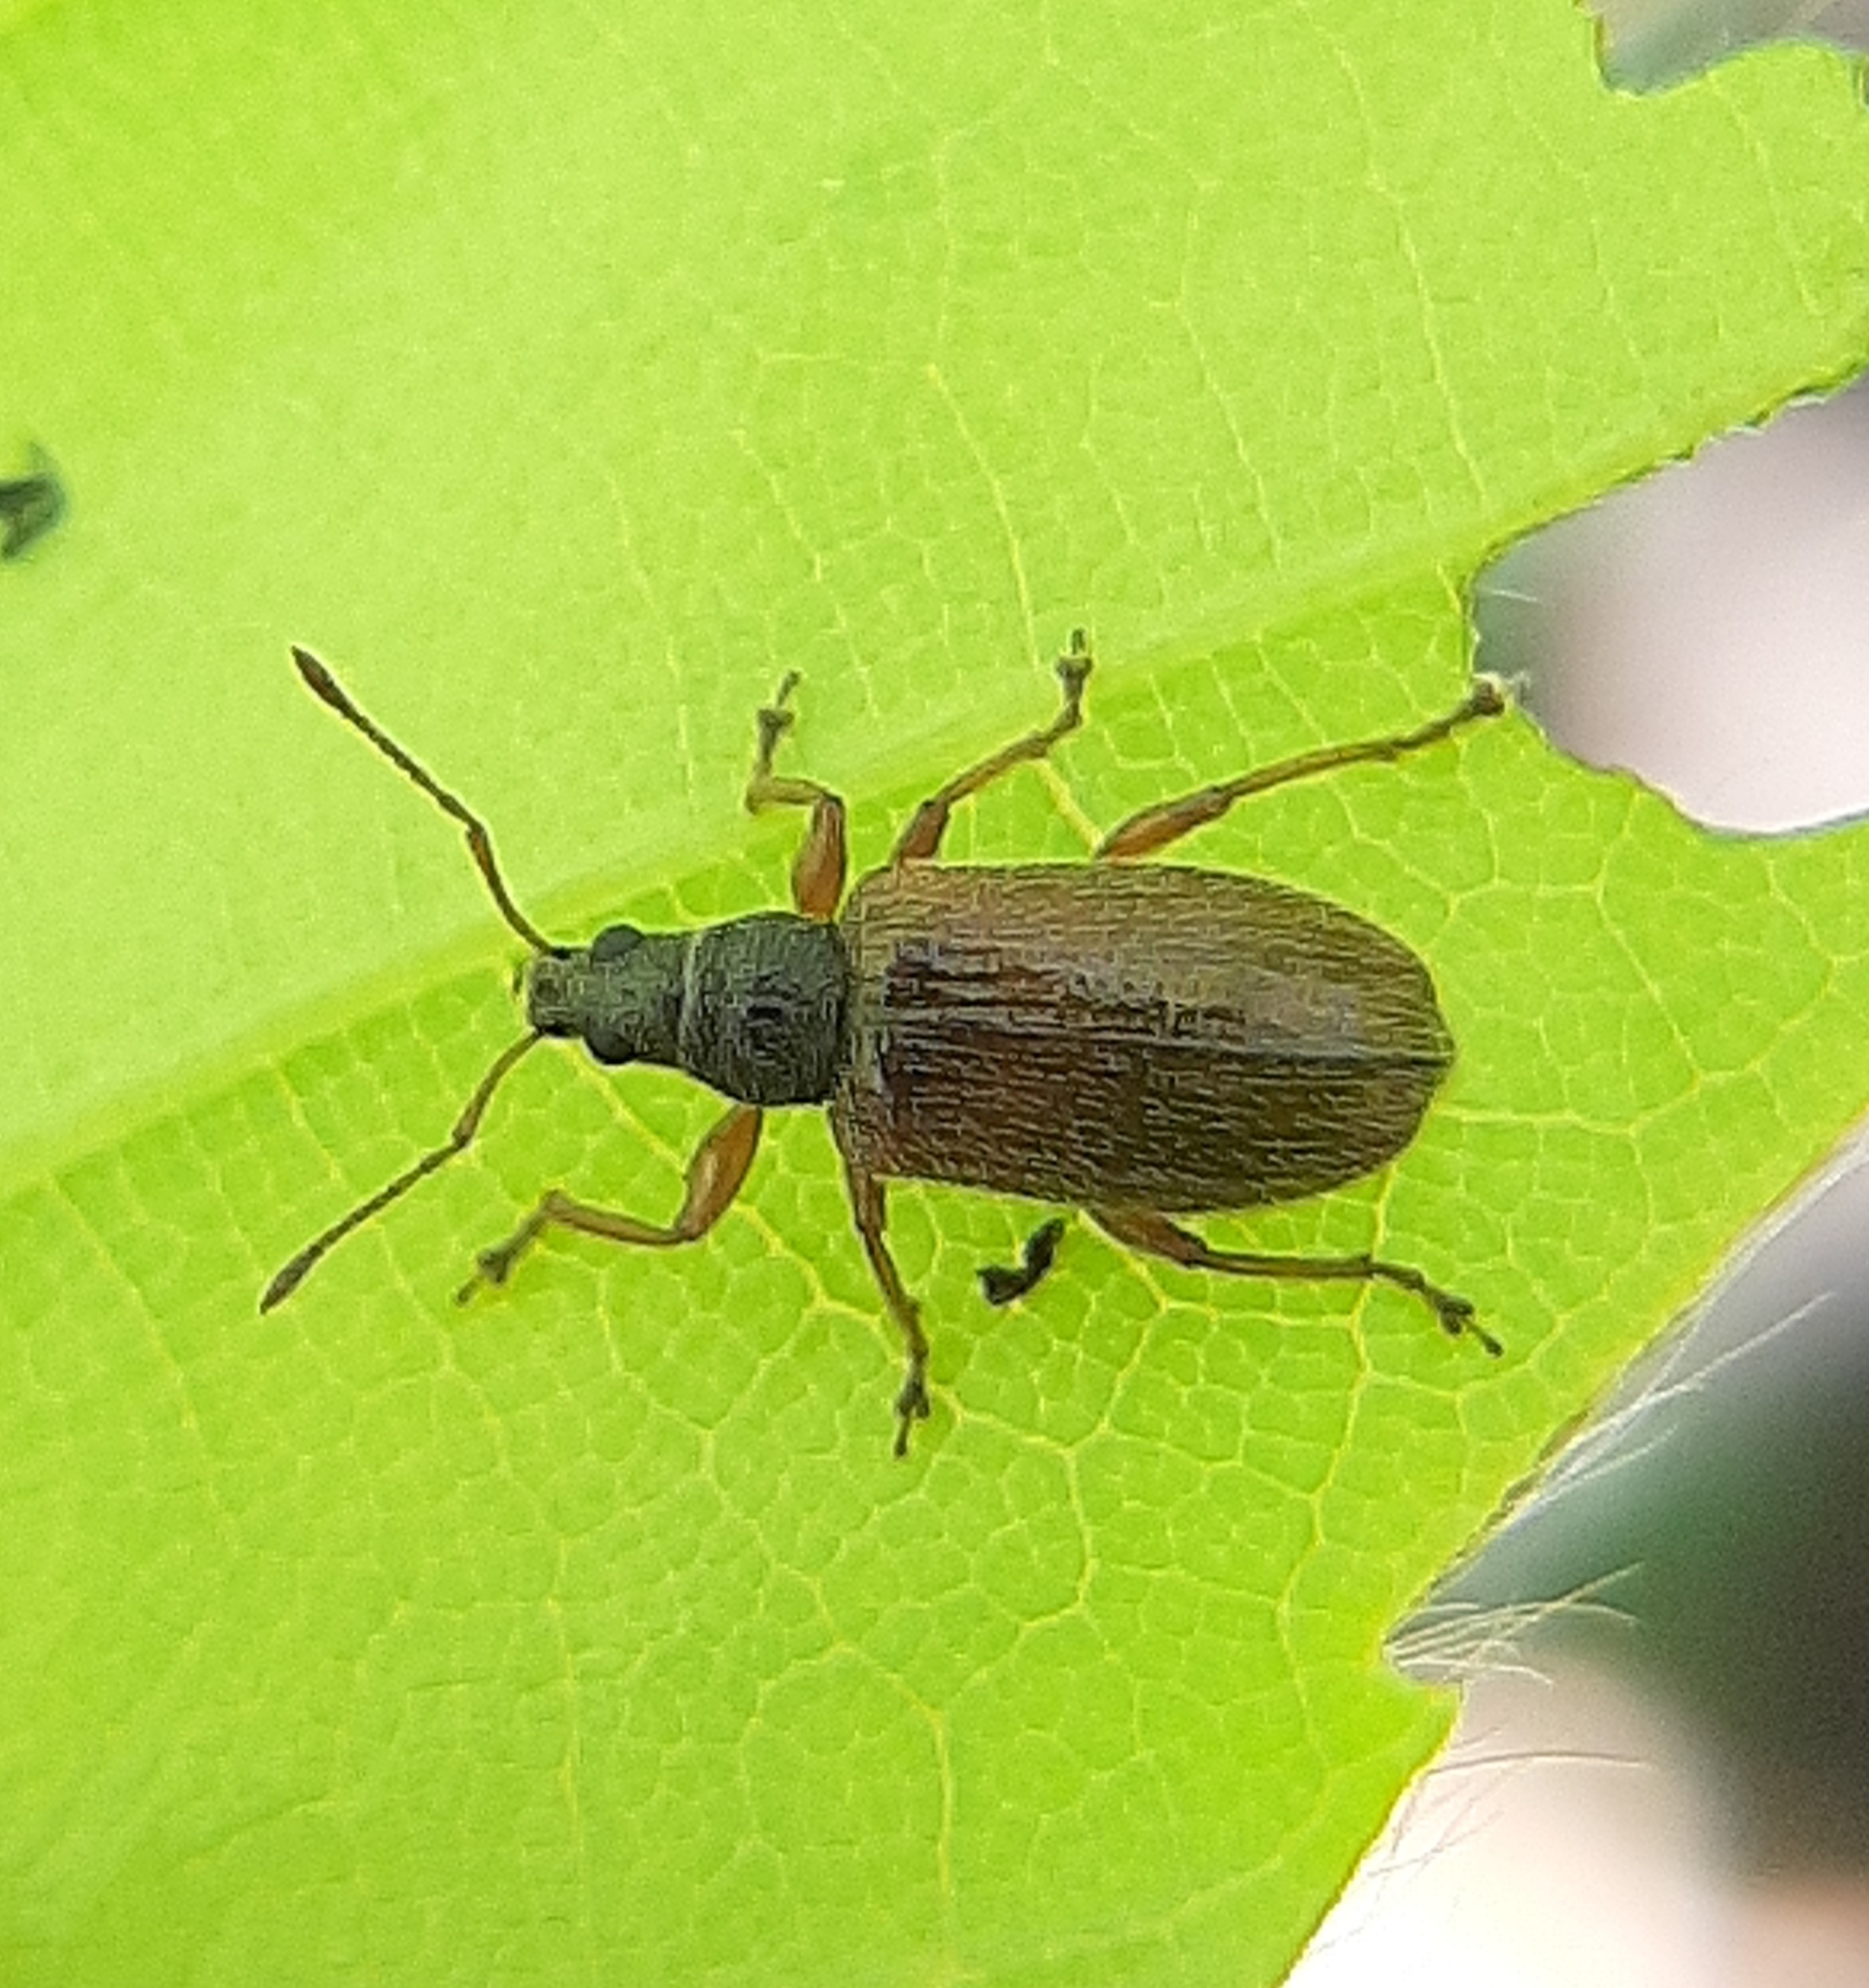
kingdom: Animalia
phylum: Arthropoda
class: Insecta
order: Coleoptera
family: Curculionidae
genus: Phyllobius
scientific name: Phyllobius oblongus
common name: Brown leaf weevil
